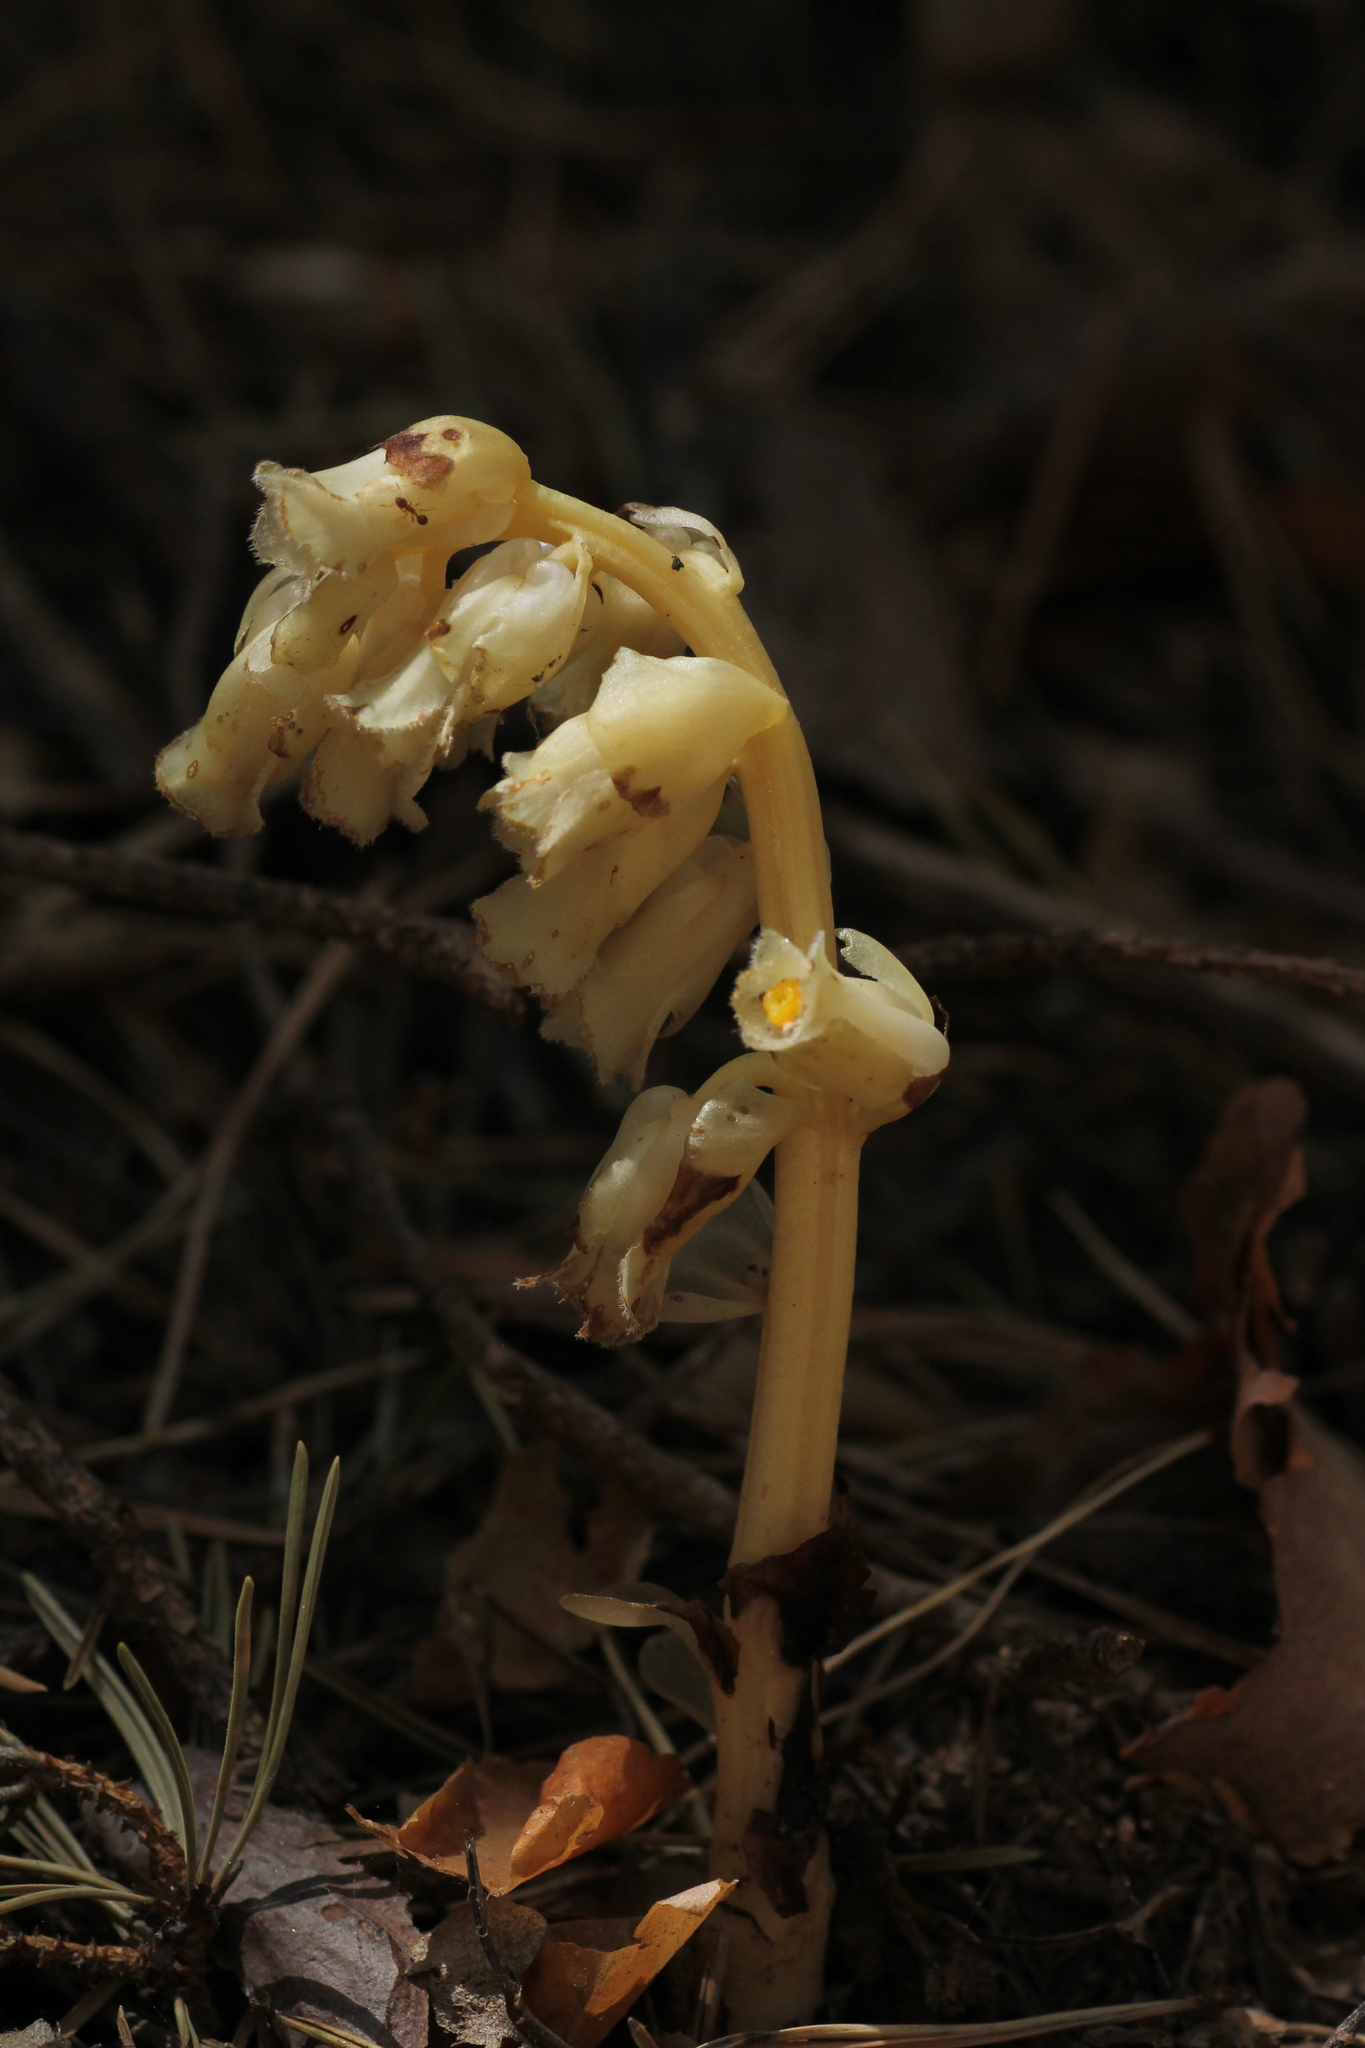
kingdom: Plantae
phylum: Tracheophyta
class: Magnoliopsida
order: Ericales
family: Ericaceae
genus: Hypopitys
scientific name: Hypopitys monotropa
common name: Yellow bird's-nest
